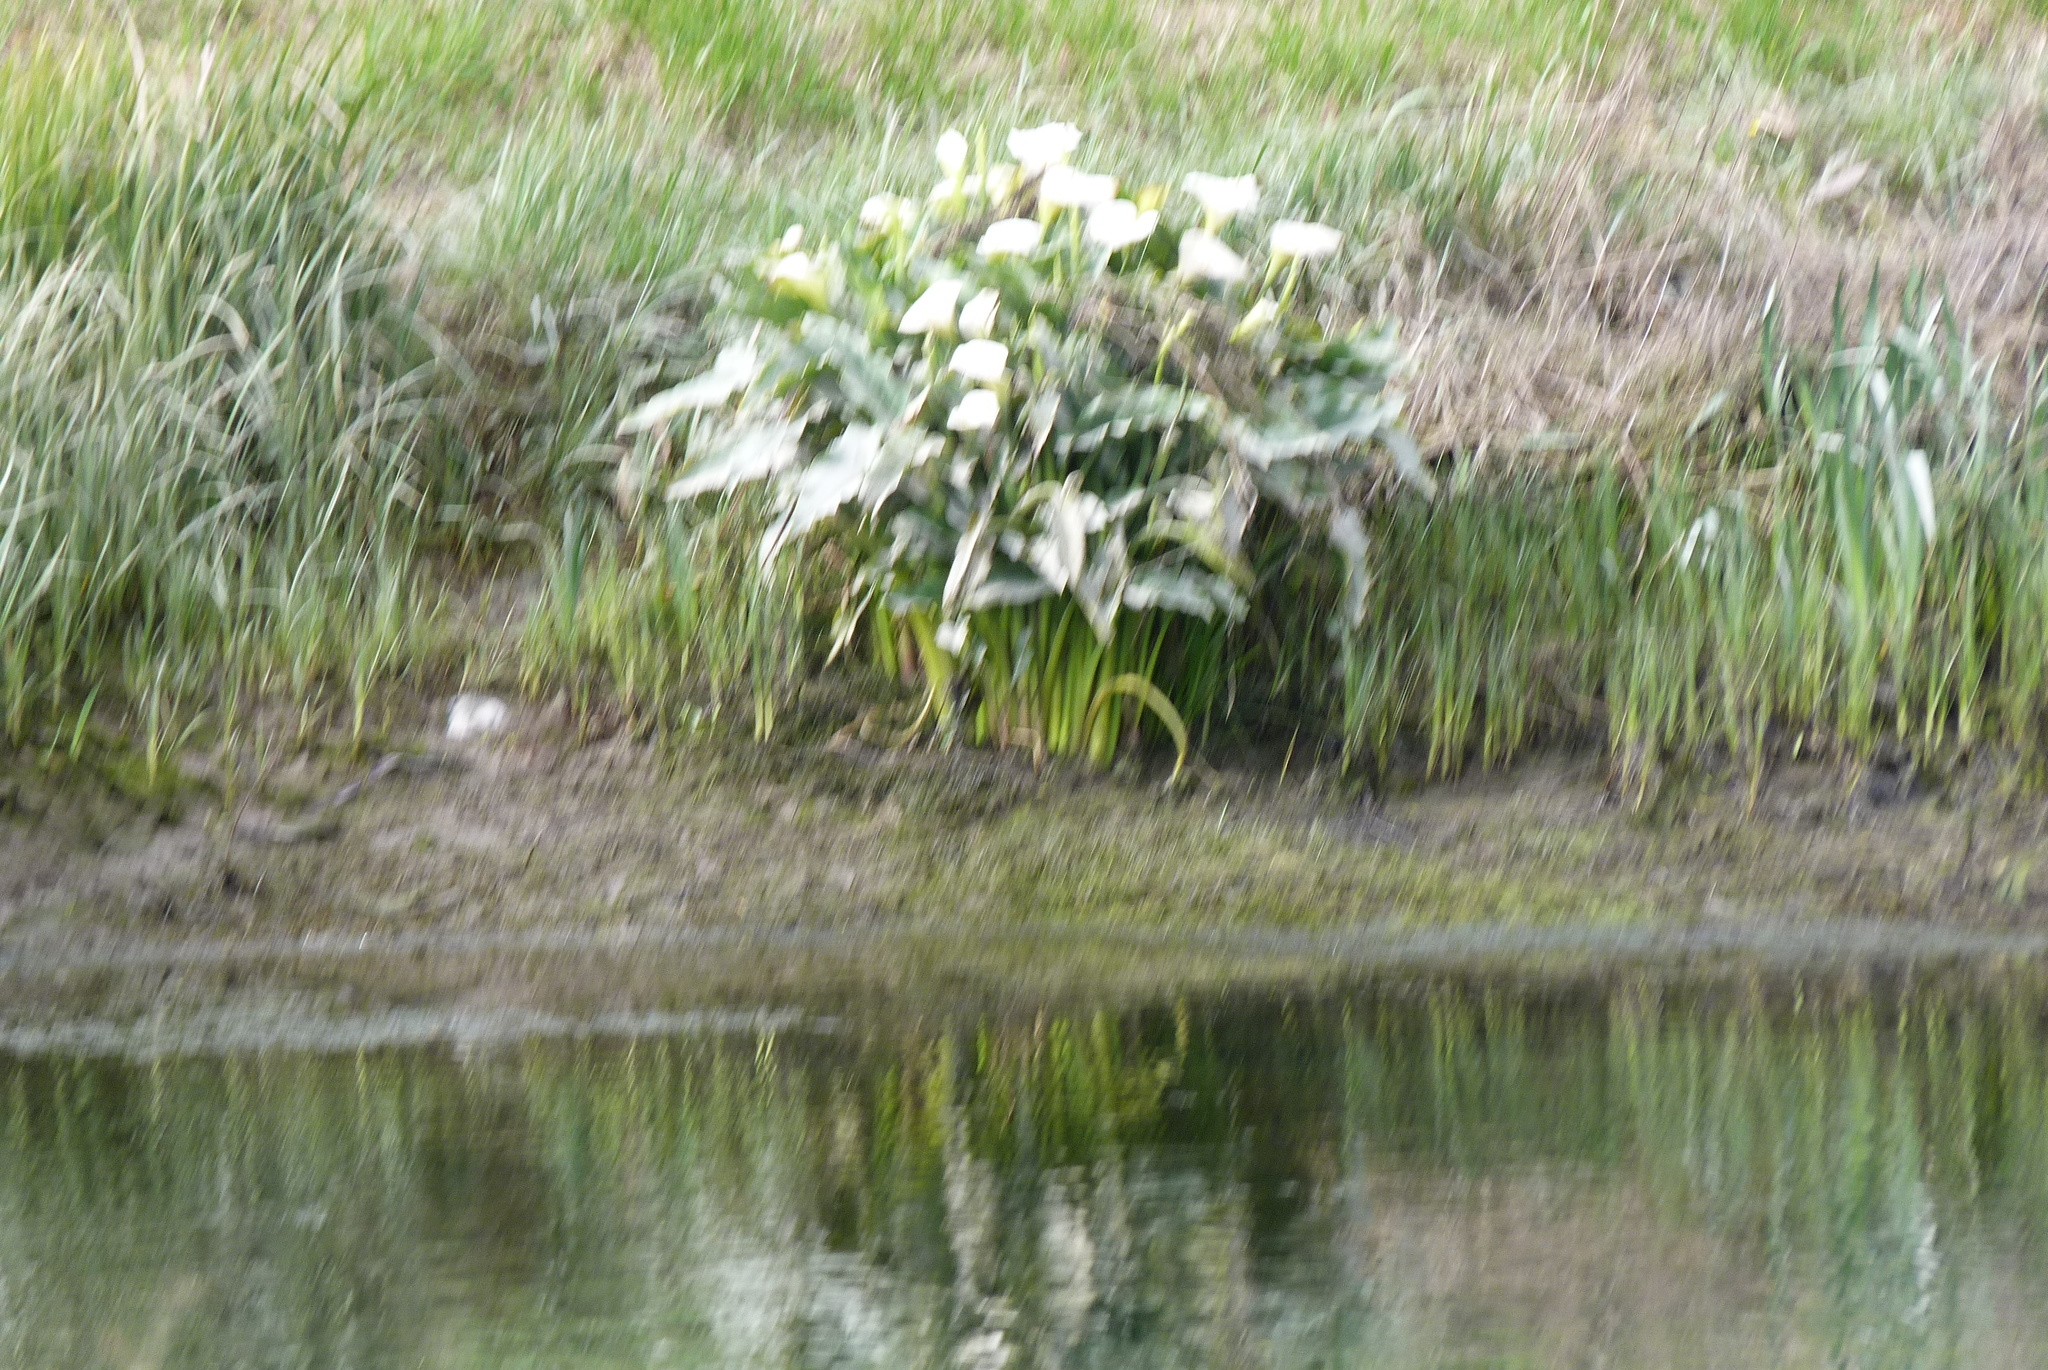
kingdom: Plantae
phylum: Tracheophyta
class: Liliopsida
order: Alismatales
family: Araceae
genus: Zantedeschia
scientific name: Zantedeschia aethiopica
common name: Altar-lily
